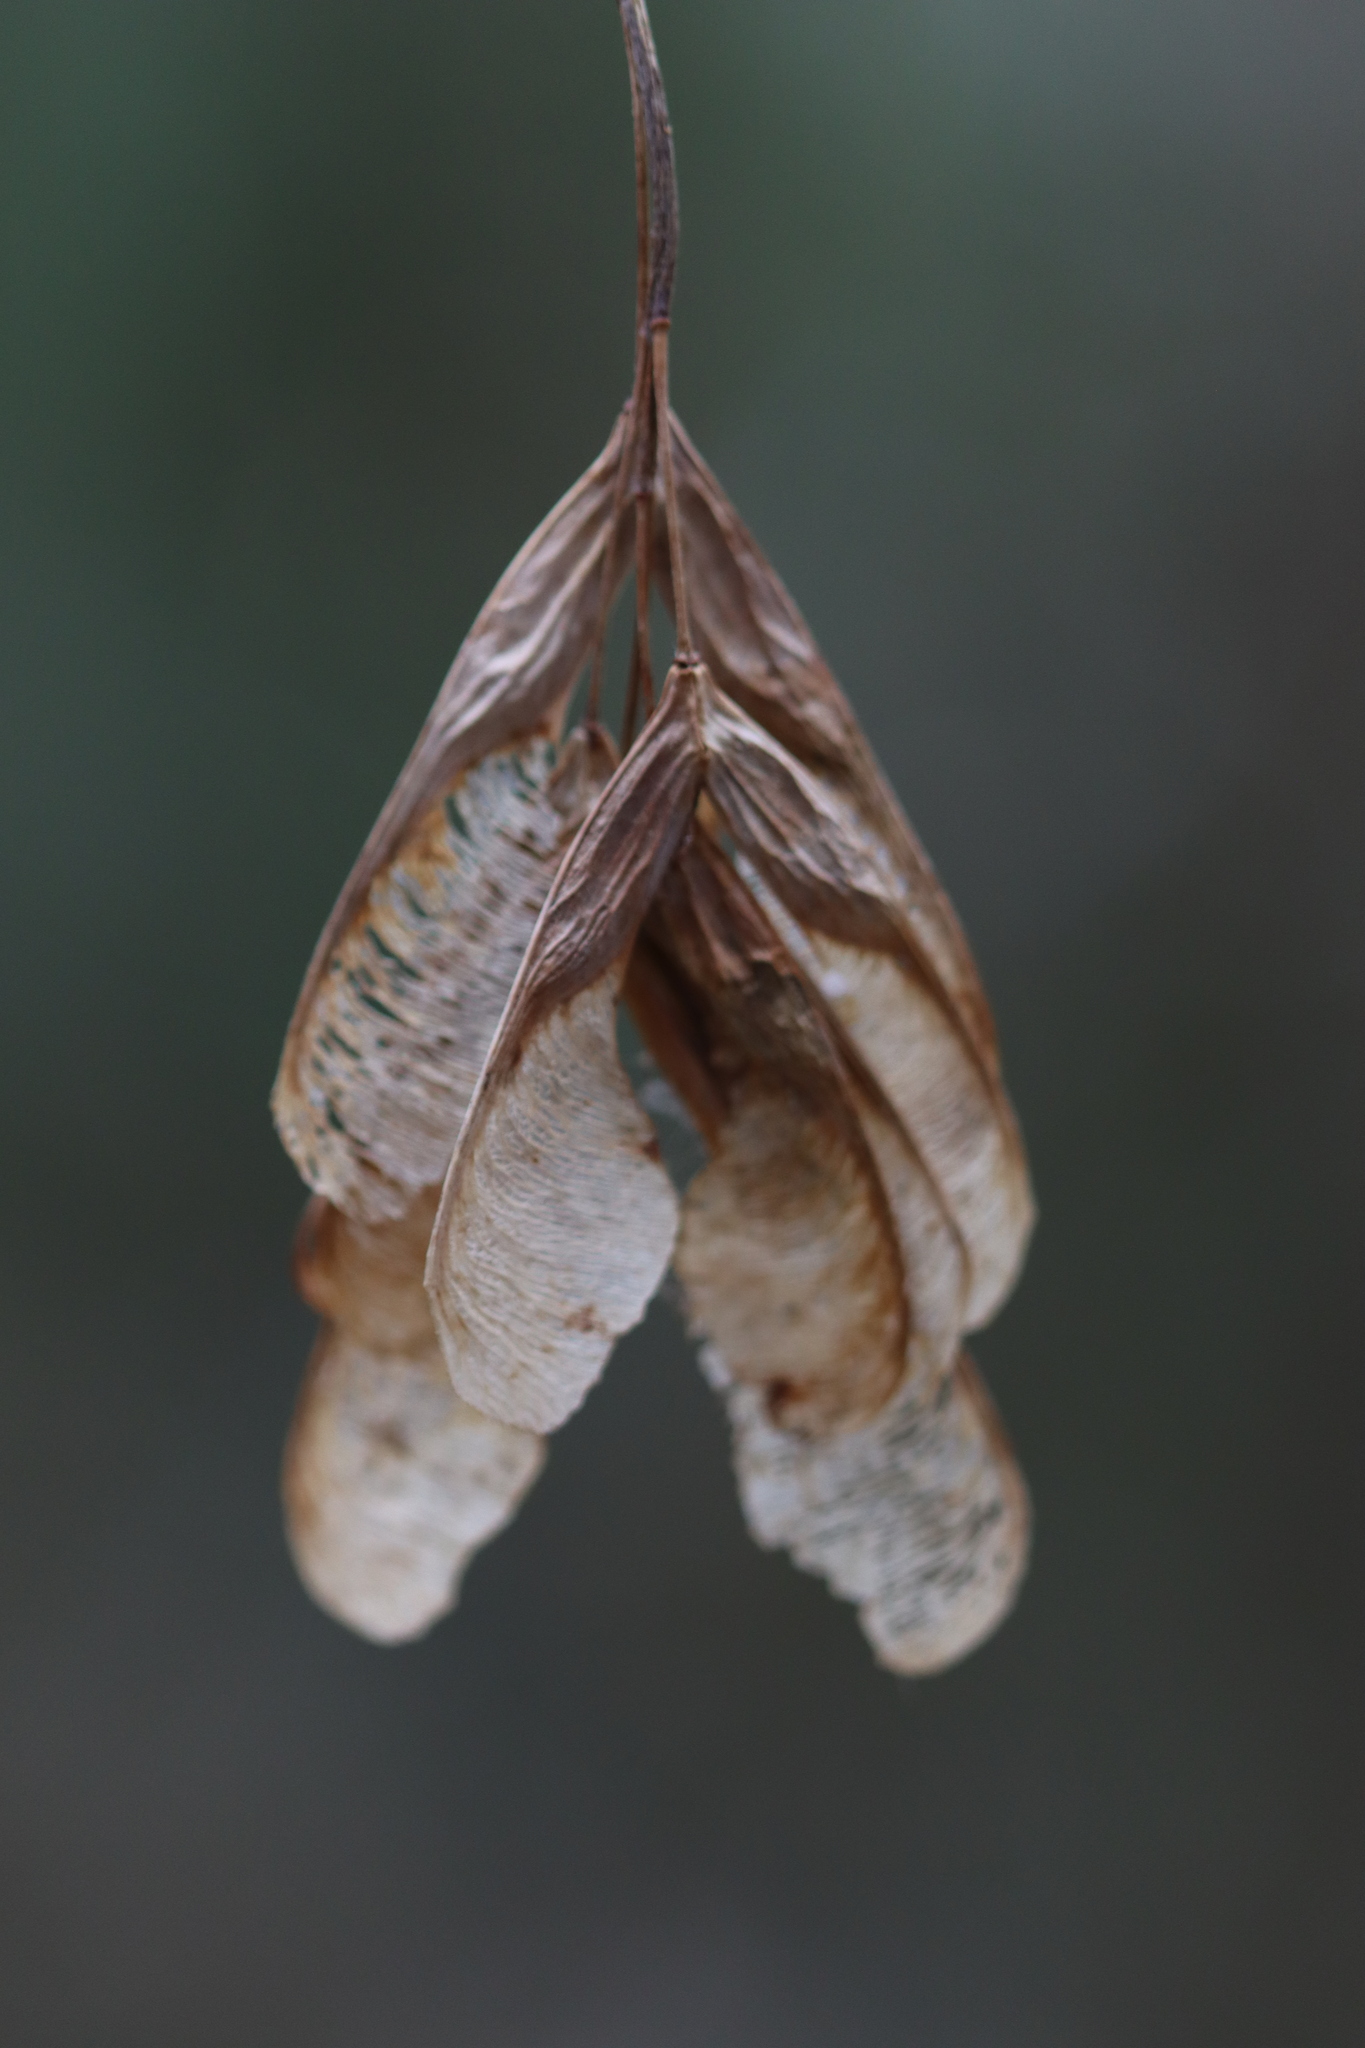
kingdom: Plantae
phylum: Tracheophyta
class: Magnoliopsida
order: Sapindales
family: Sapindaceae
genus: Acer
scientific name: Acer negundo
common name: Ashleaf maple
